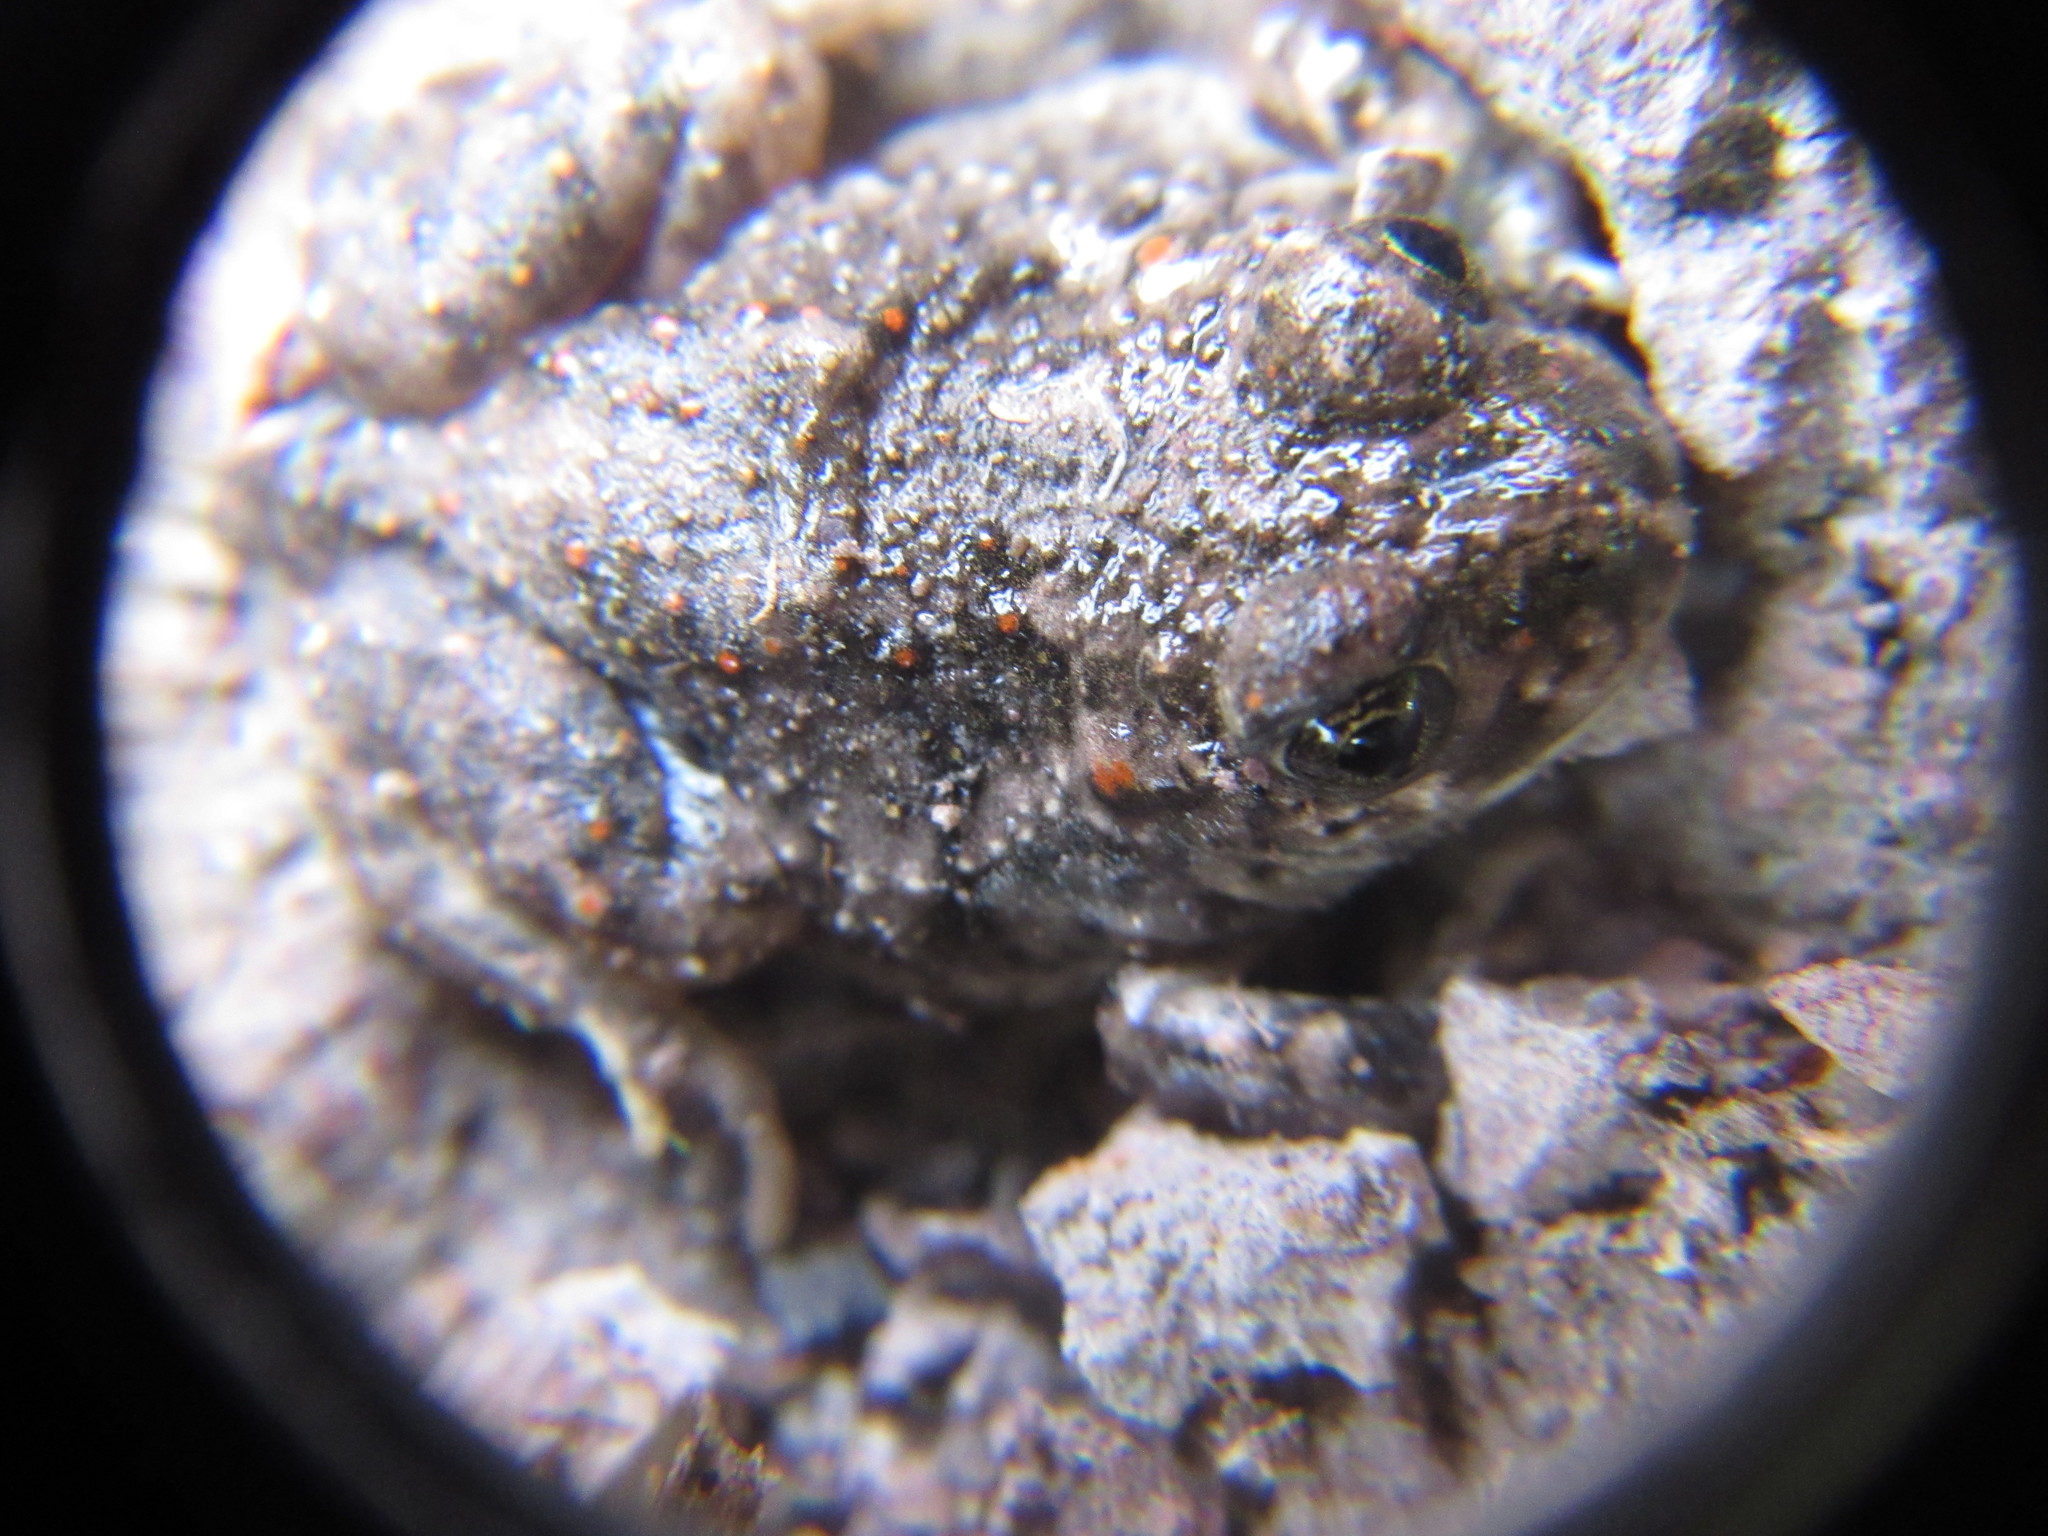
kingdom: Animalia
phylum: Chordata
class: Amphibia
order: Anura
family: Scaphiopodidae
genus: Spea
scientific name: Spea multiplicata
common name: Mexican spadefoot
